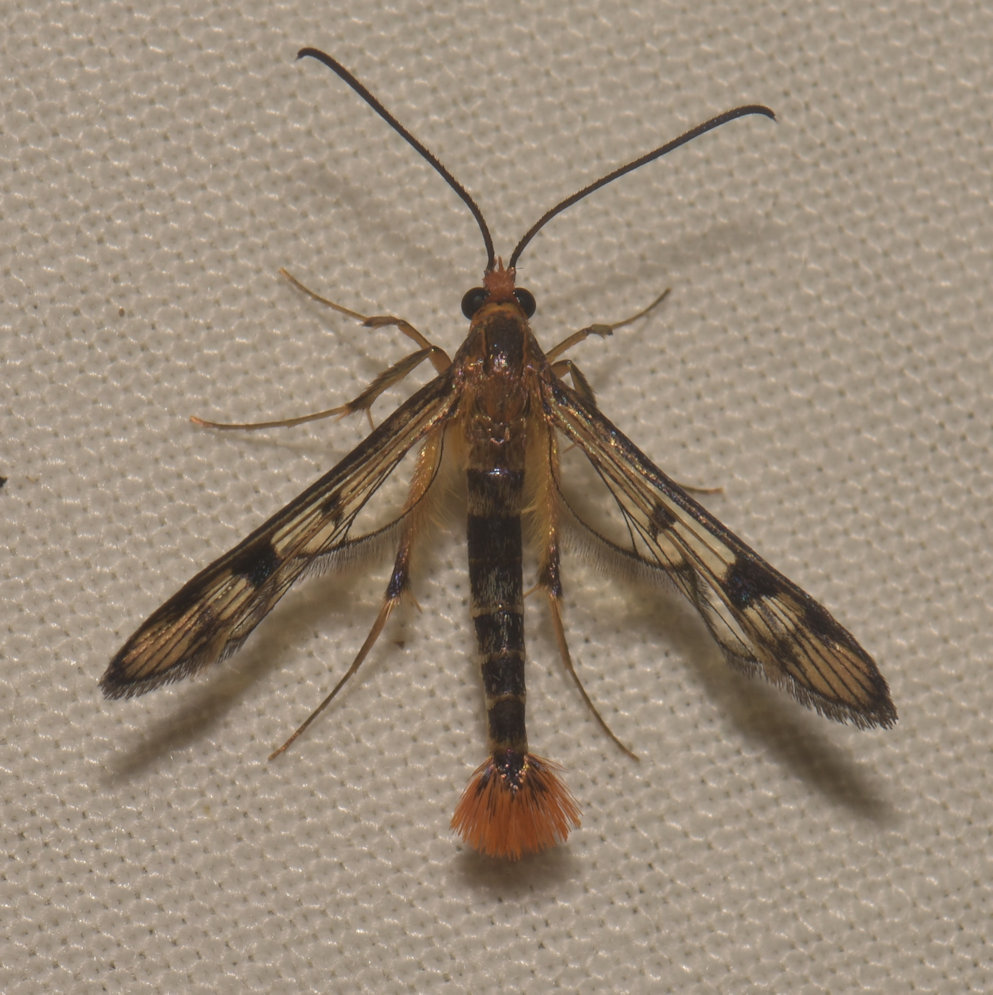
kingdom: Animalia
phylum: Arthropoda
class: Insecta
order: Lepidoptera
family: Sesiidae
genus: Synanthedon
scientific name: Synanthedon acerni
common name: Maple callus borer moth
